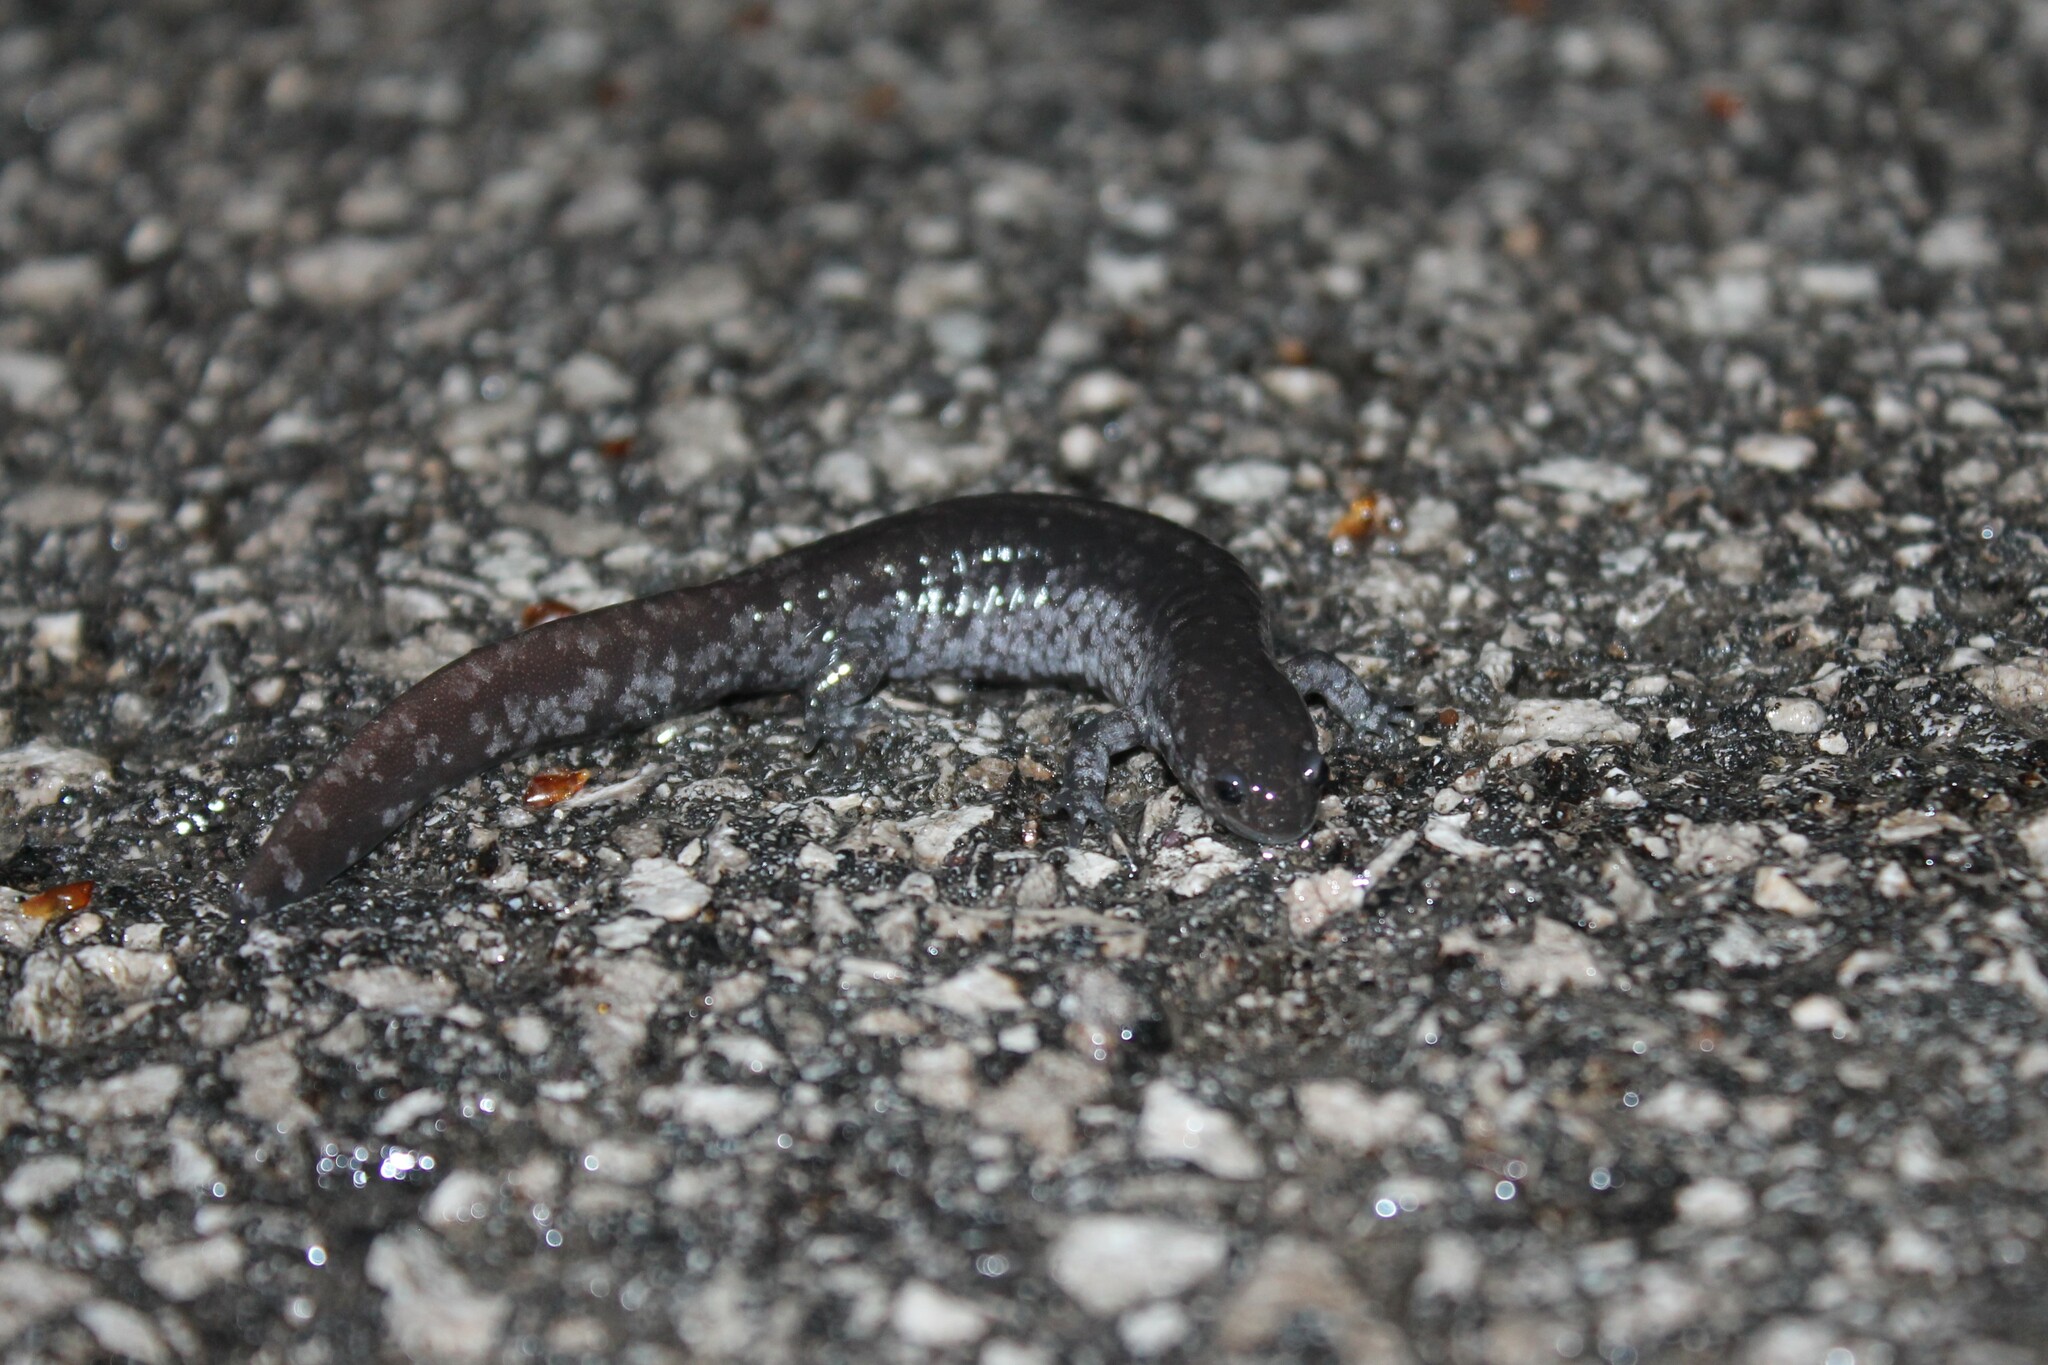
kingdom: Animalia
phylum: Chordata
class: Amphibia
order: Caudata
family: Ambystomatidae
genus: Ambystoma
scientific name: Ambystoma texanum
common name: Small-mouth salamander
